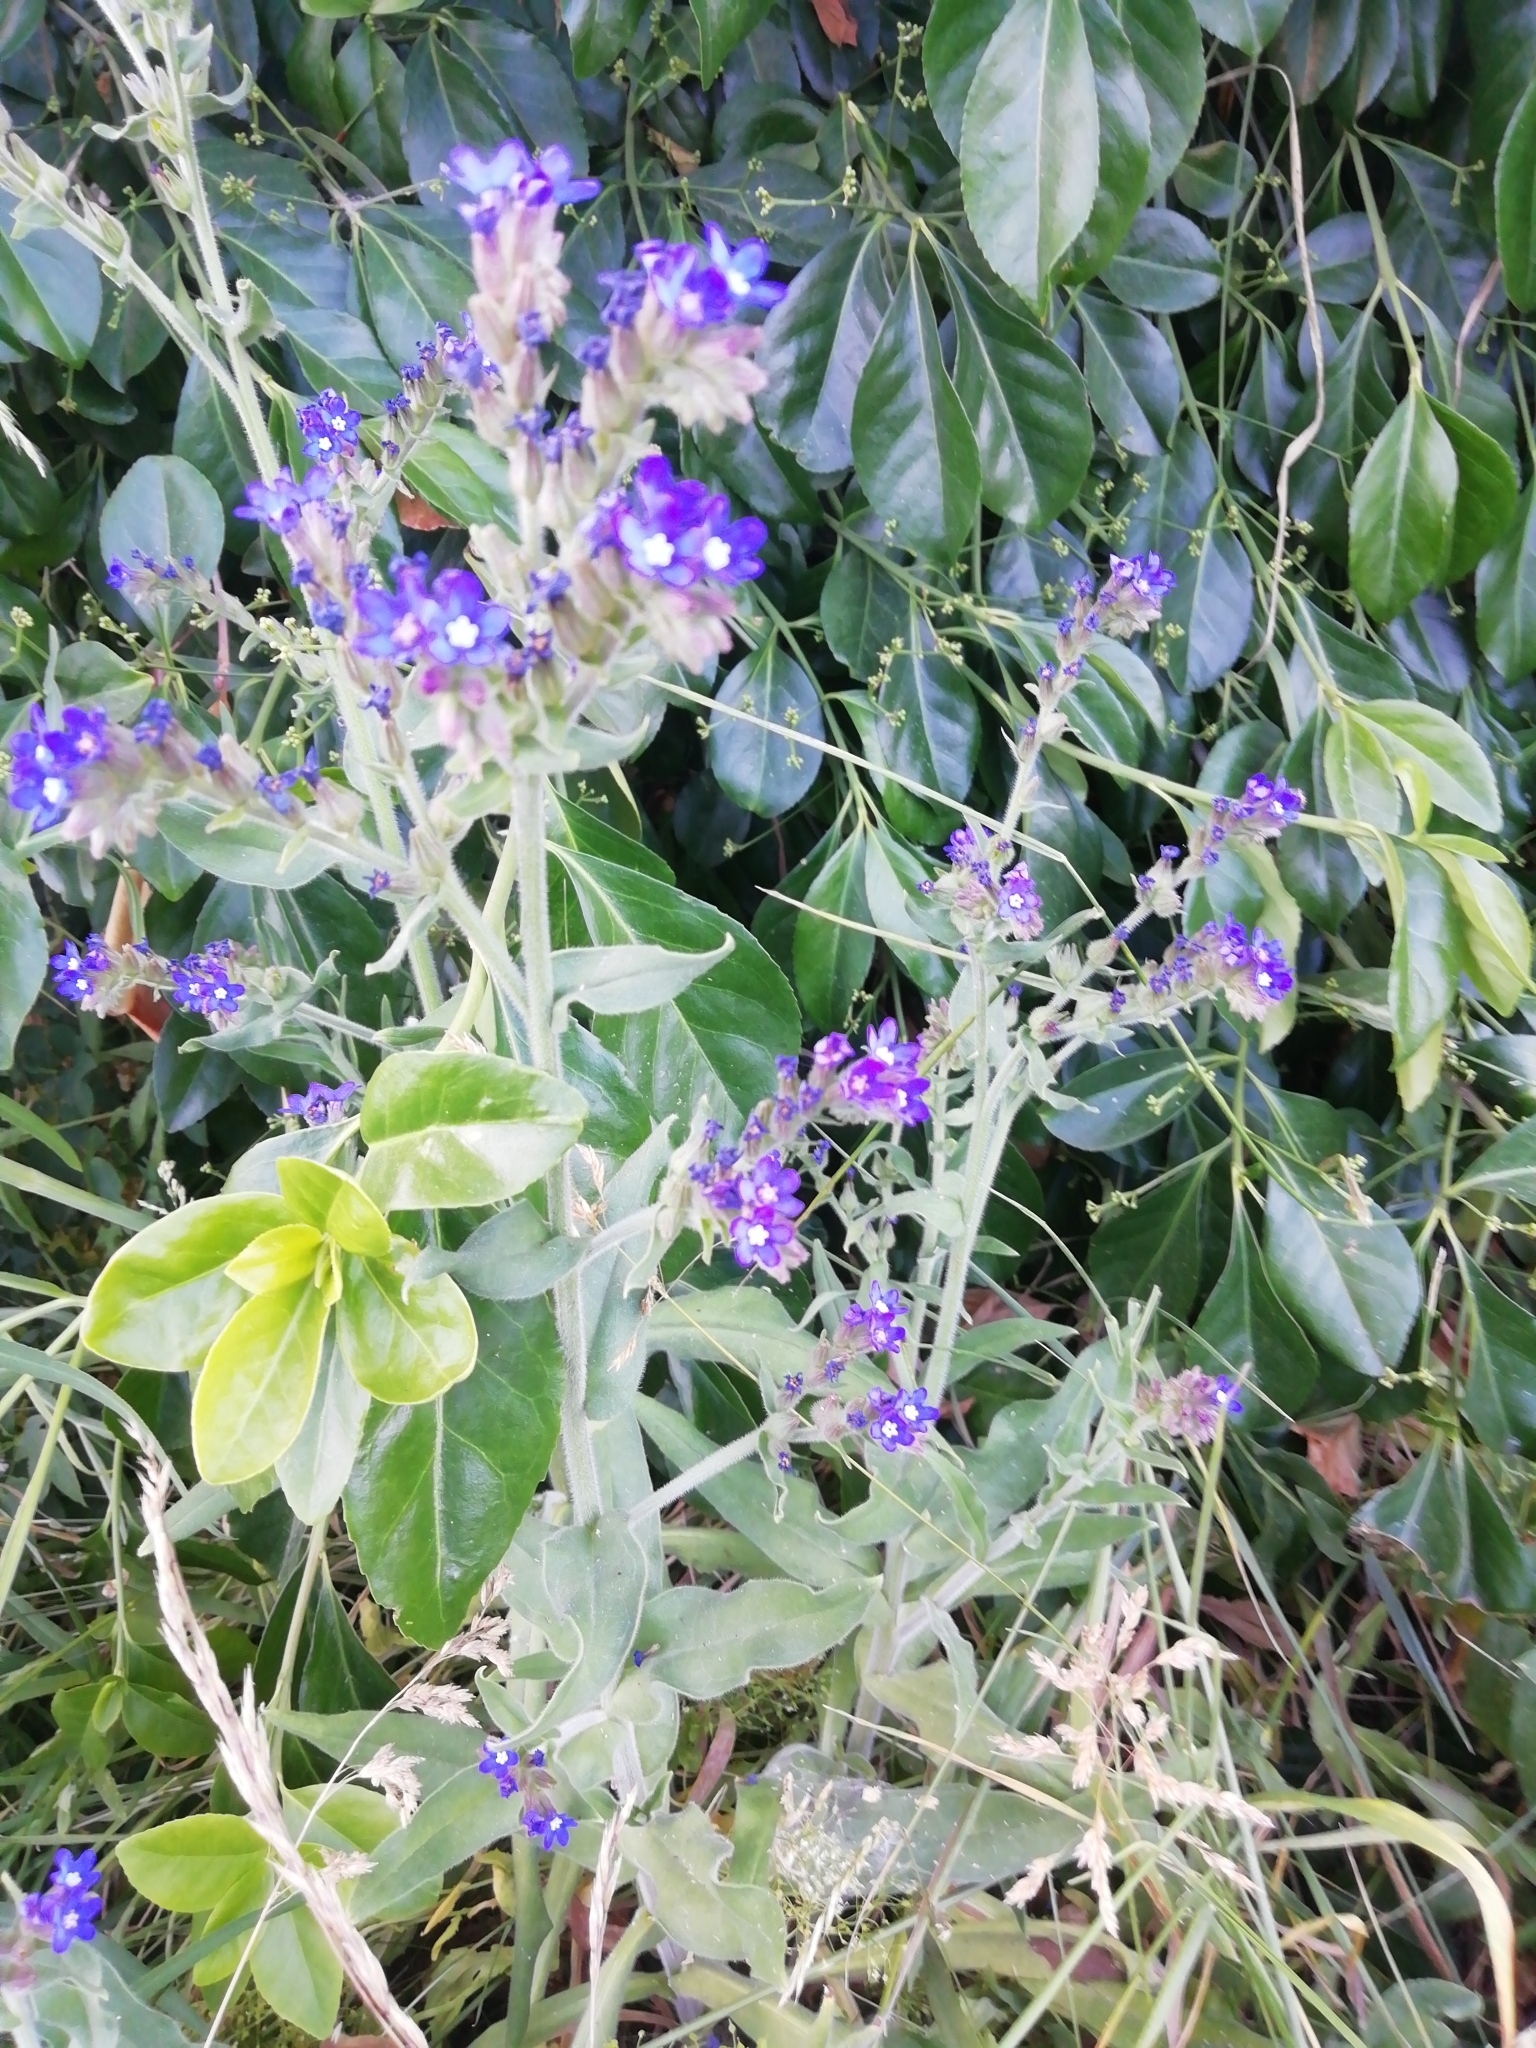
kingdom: Plantae
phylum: Tracheophyta
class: Magnoliopsida
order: Boraginales
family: Boraginaceae
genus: Anchusa
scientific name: Anchusa officinalis
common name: Alkanet
